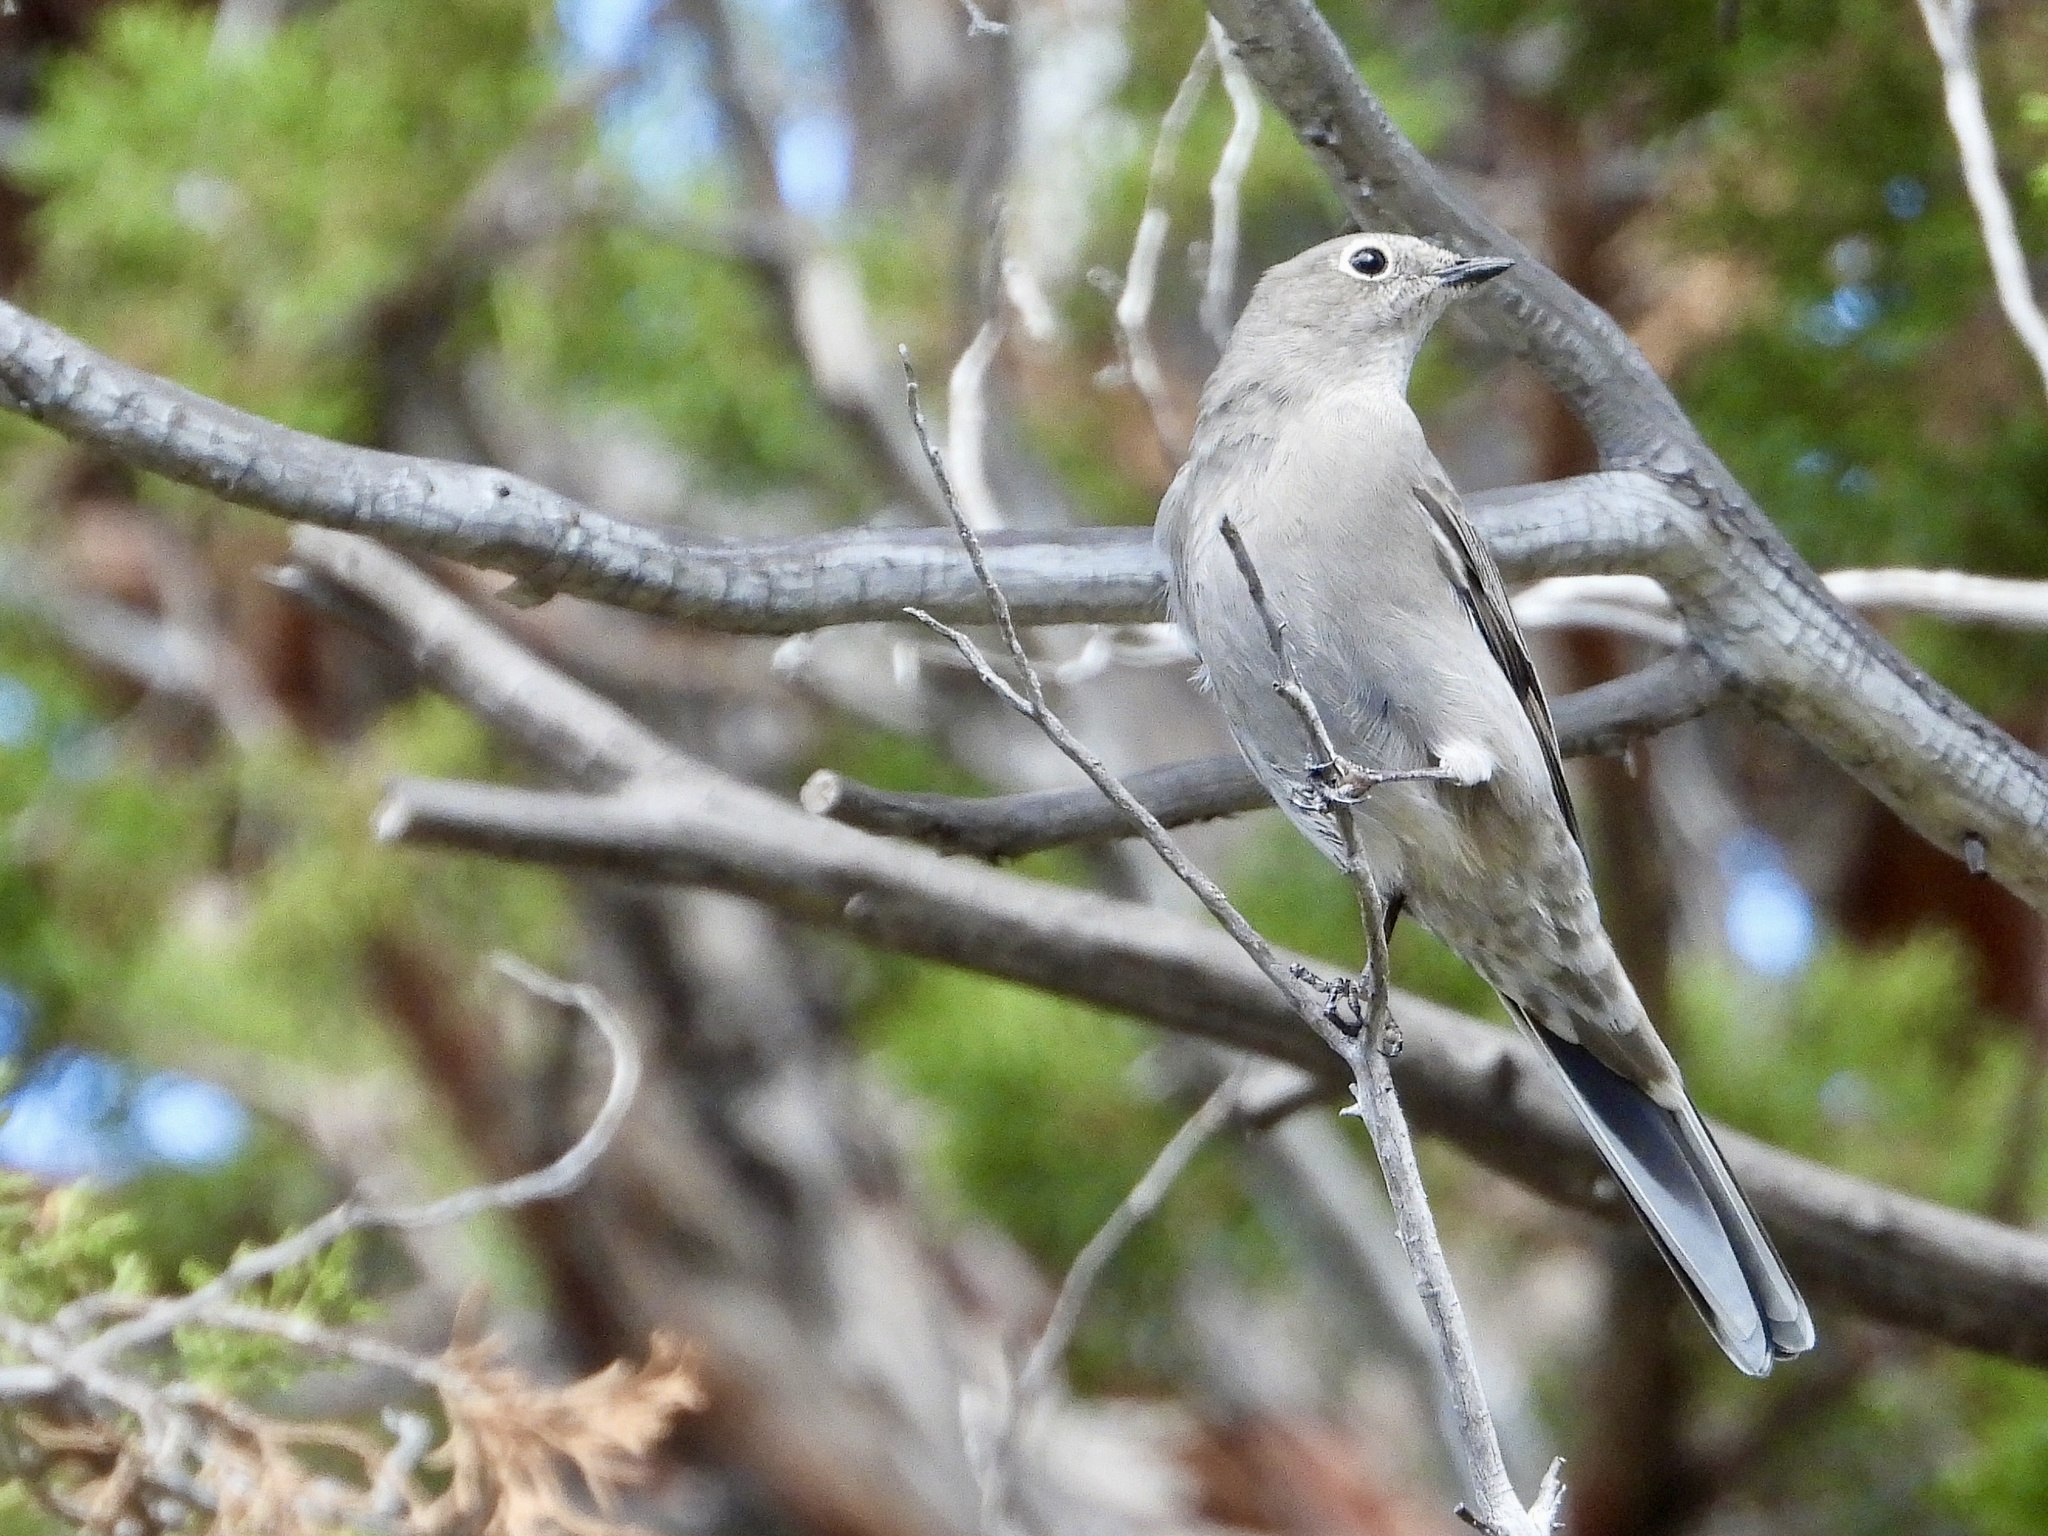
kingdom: Animalia
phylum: Chordata
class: Aves
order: Passeriformes
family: Turdidae
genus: Myadestes
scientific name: Myadestes townsendi
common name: Townsend's solitaire
